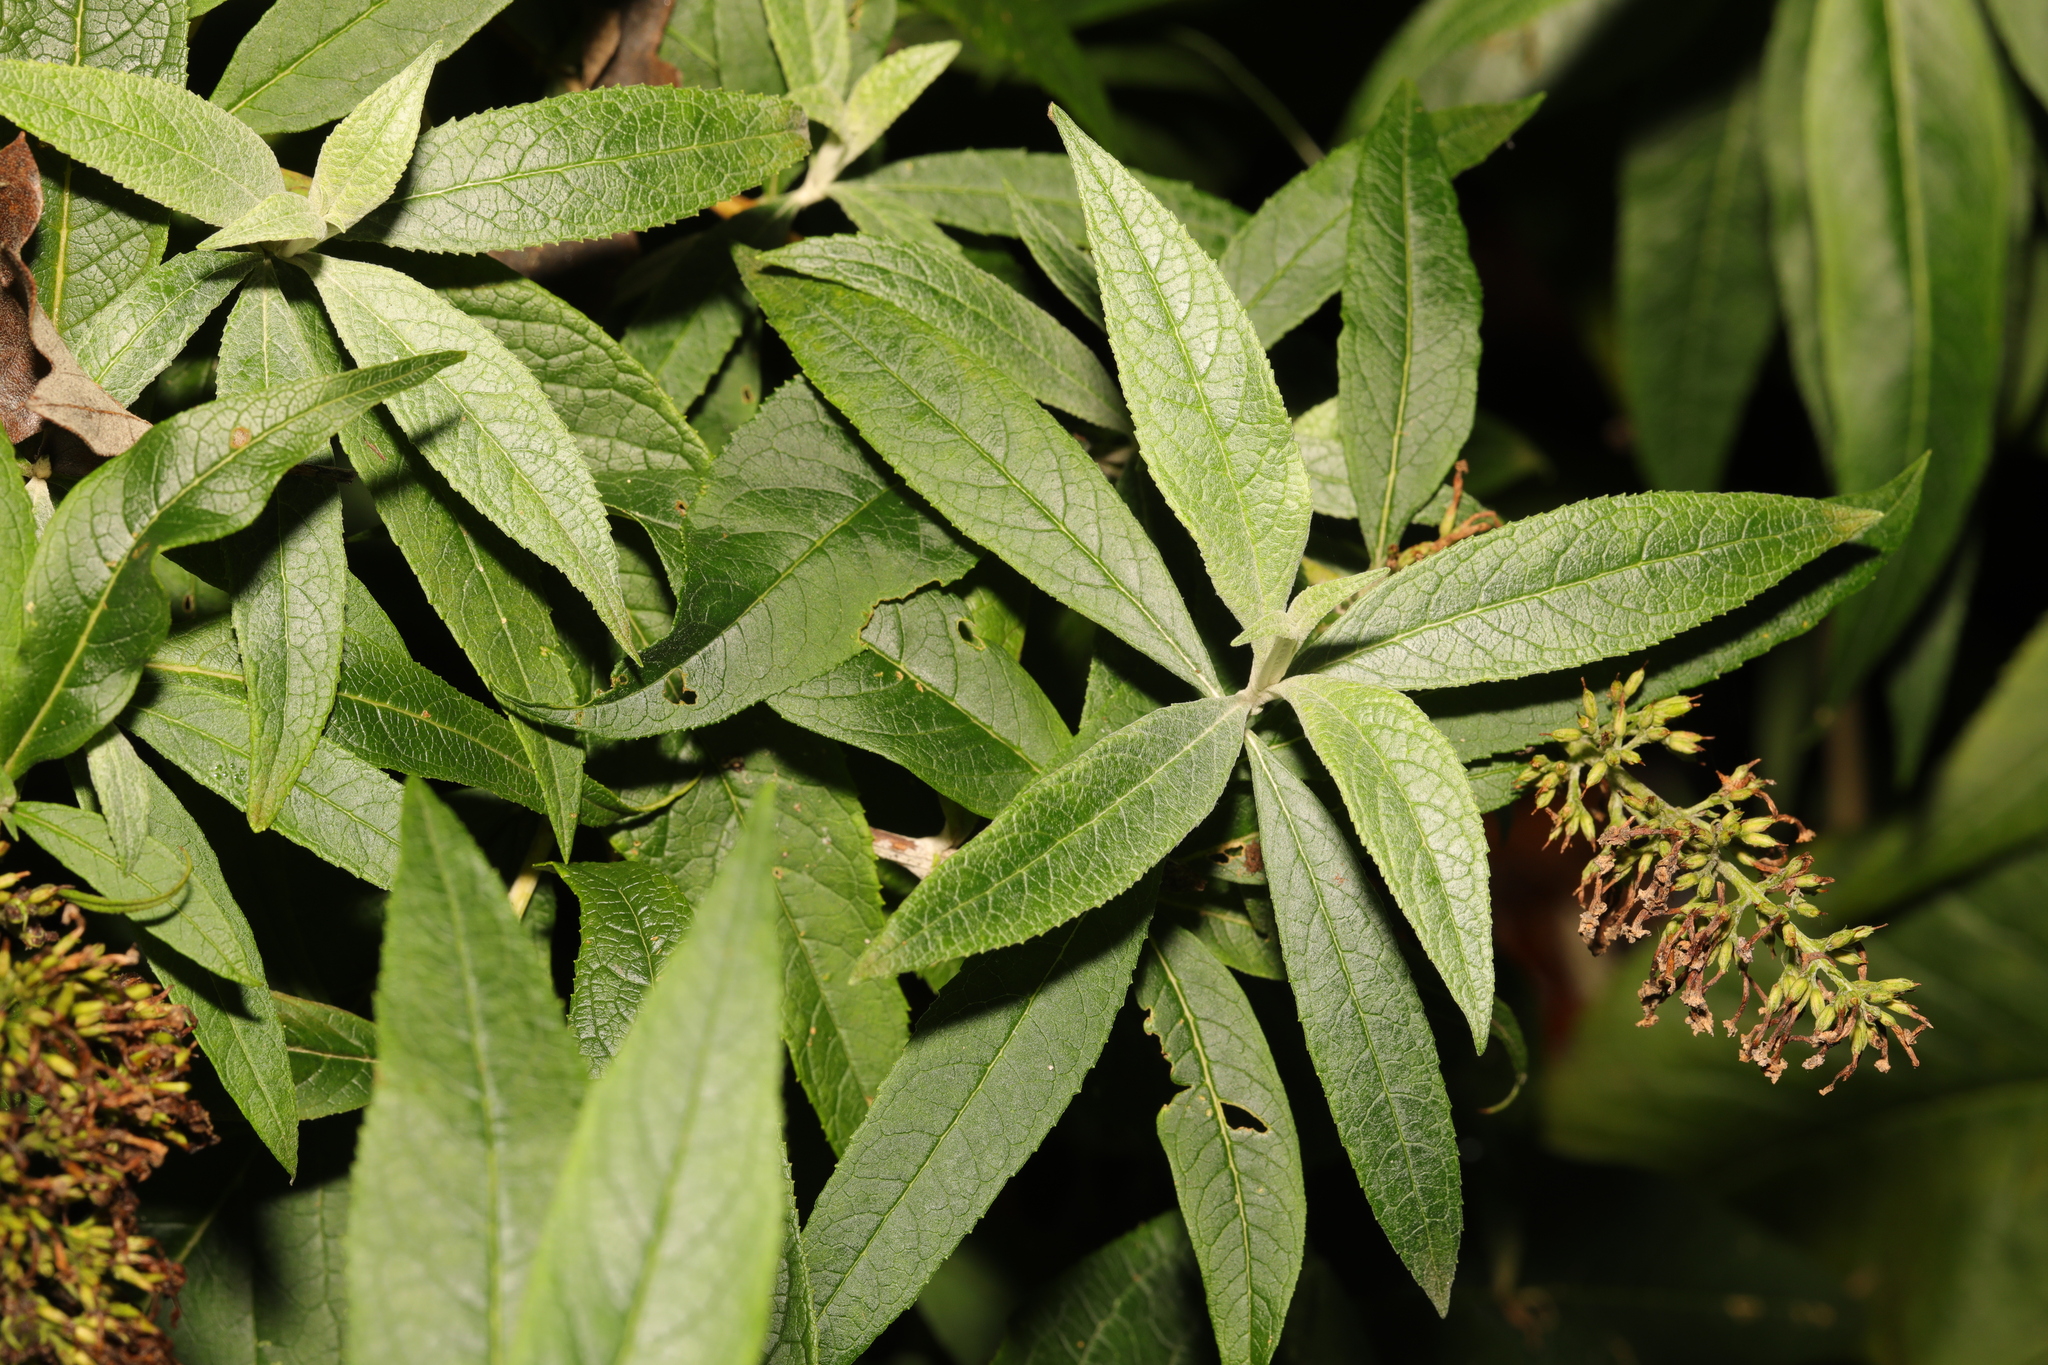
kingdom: Plantae
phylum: Tracheophyta
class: Magnoliopsida
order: Lamiales
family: Scrophulariaceae
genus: Buddleja
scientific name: Buddleja davidii
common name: Butterfly-bush
